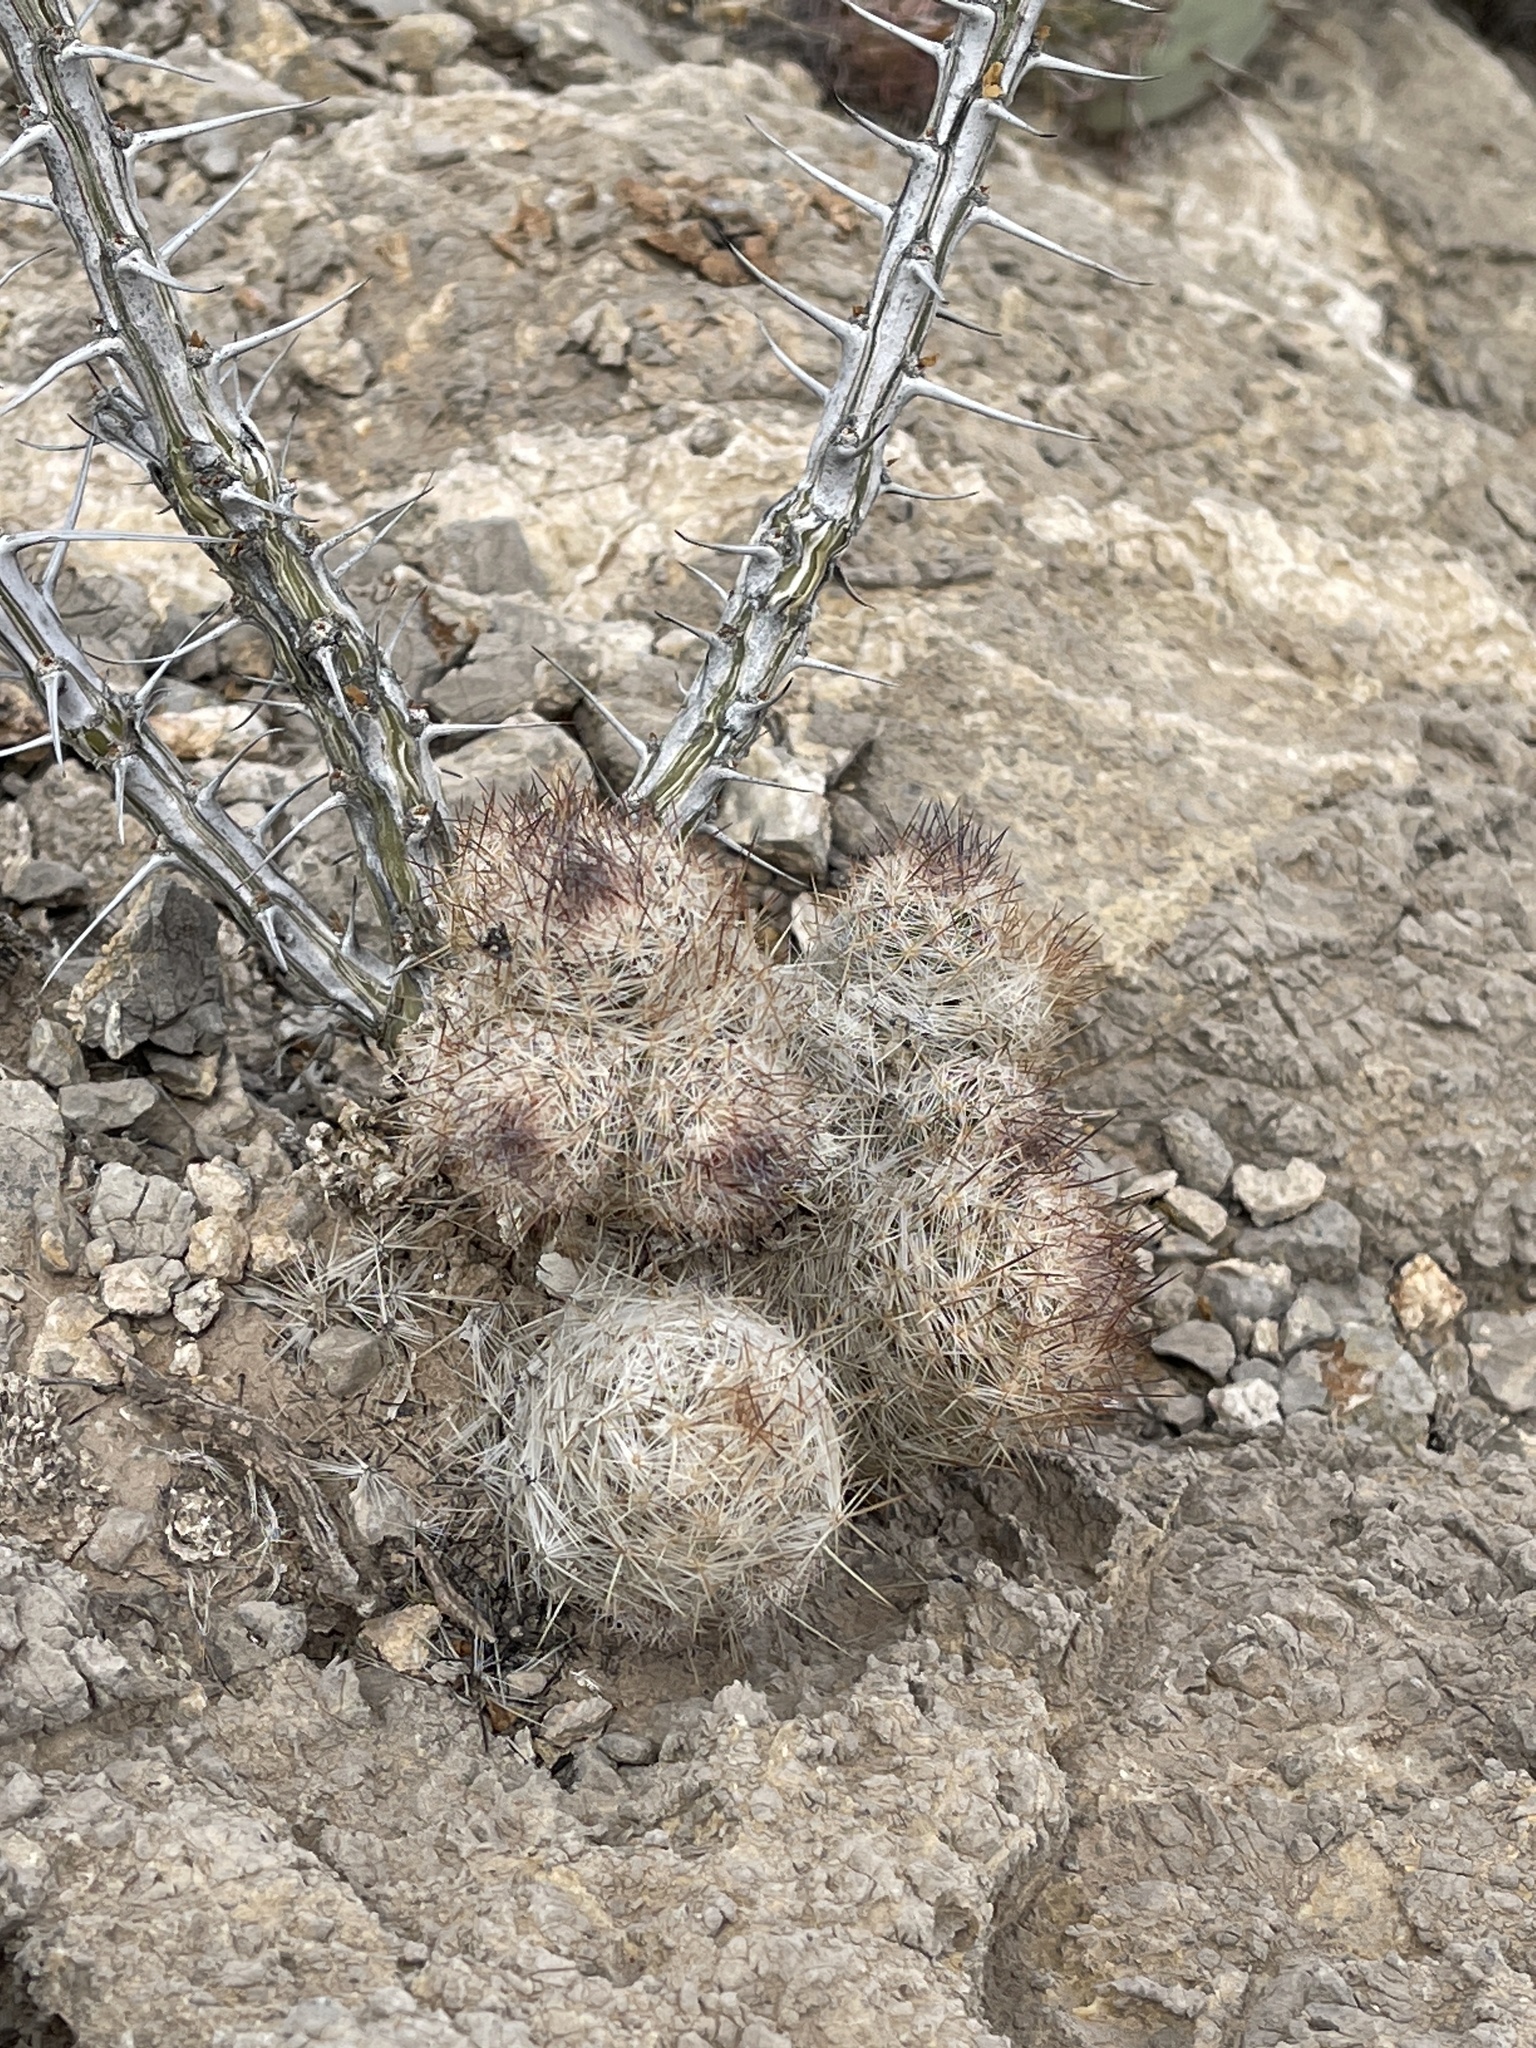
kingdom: Plantae
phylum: Tracheophyta
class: Magnoliopsida
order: Caryophyllales
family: Cactaceae
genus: Pelecyphora
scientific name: Pelecyphora tuberculosa
